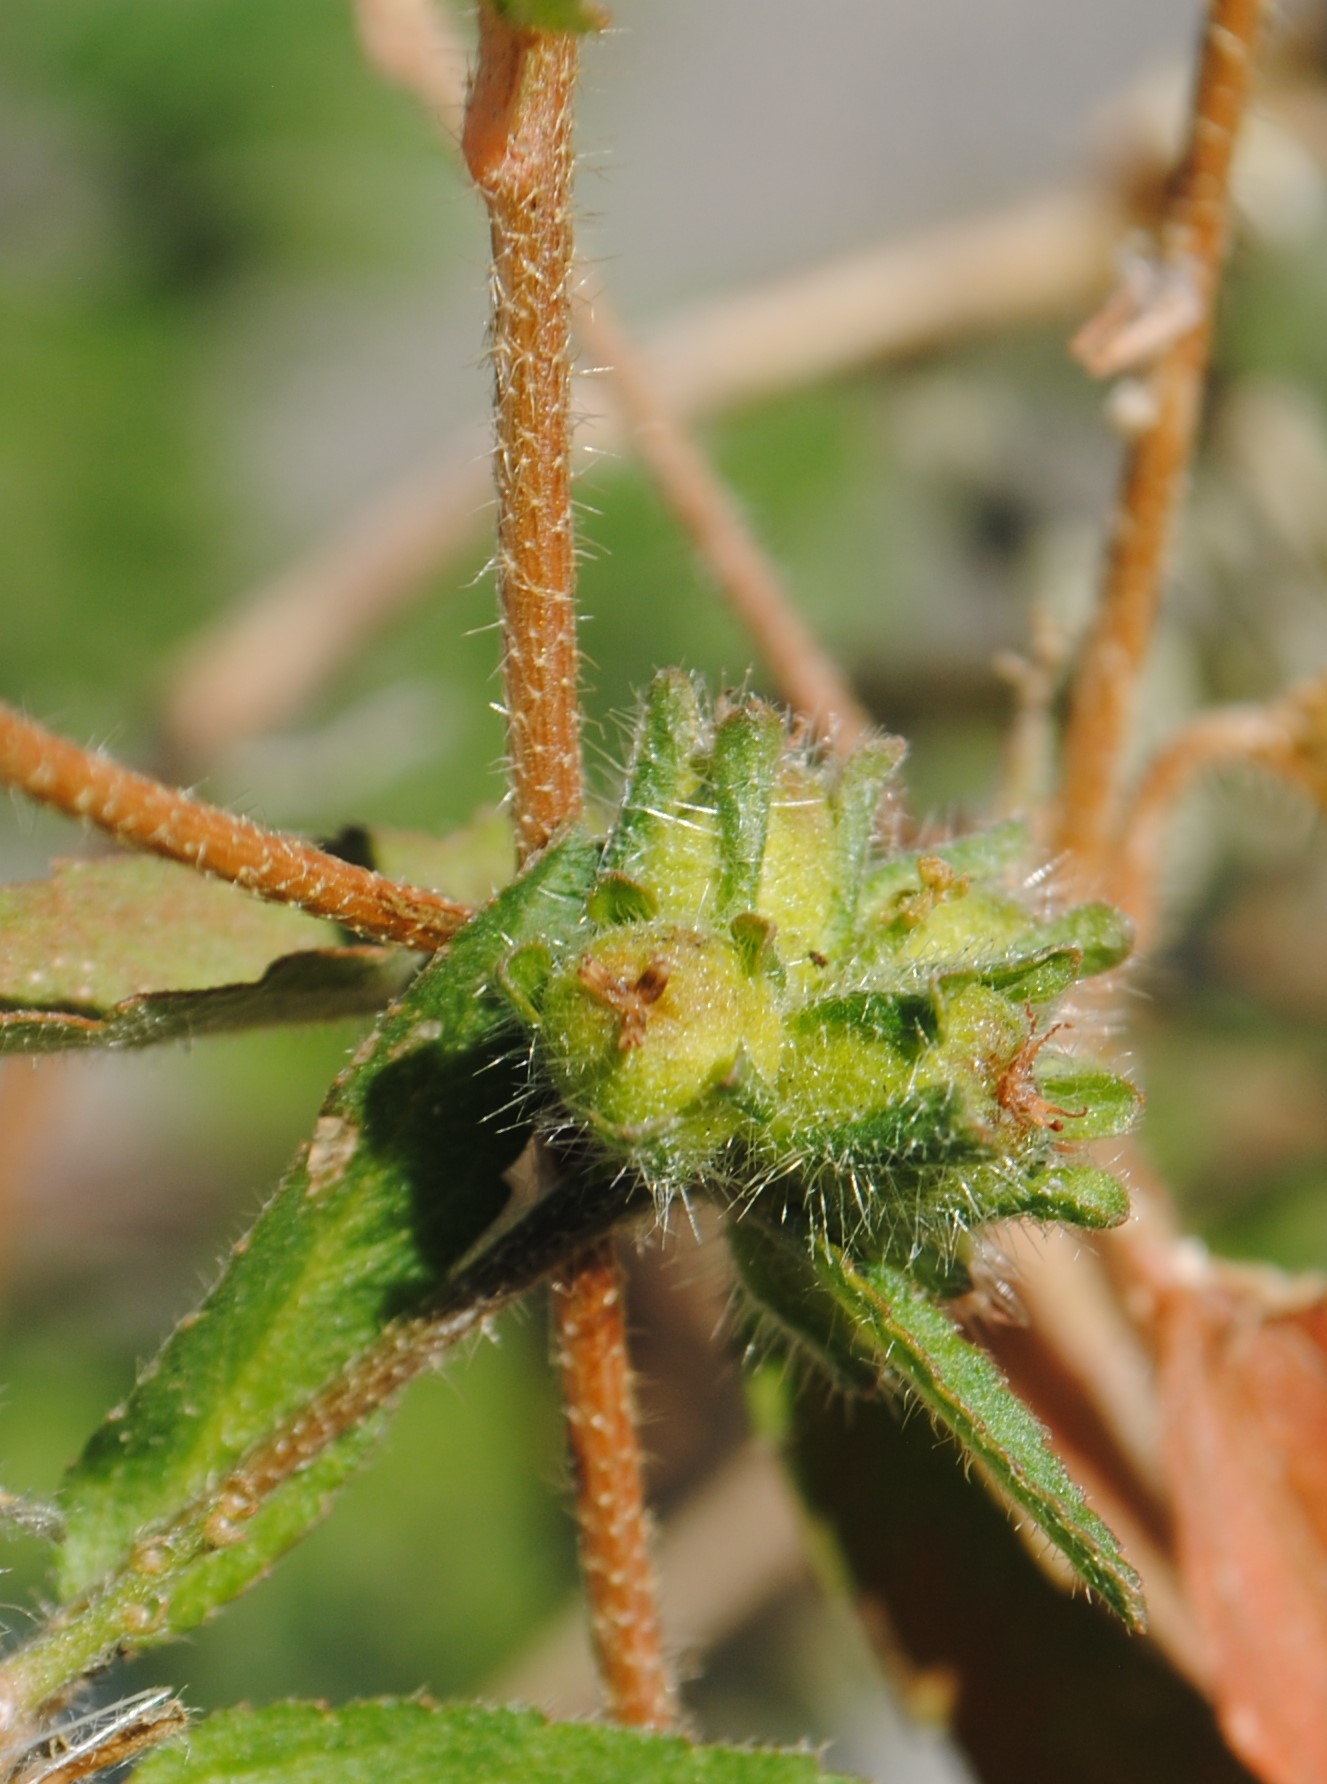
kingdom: Plantae
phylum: Tracheophyta
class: Magnoliopsida
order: Malpighiales
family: Euphorbiaceae
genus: Croton
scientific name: Croton glandulosus
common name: Tropic croton
